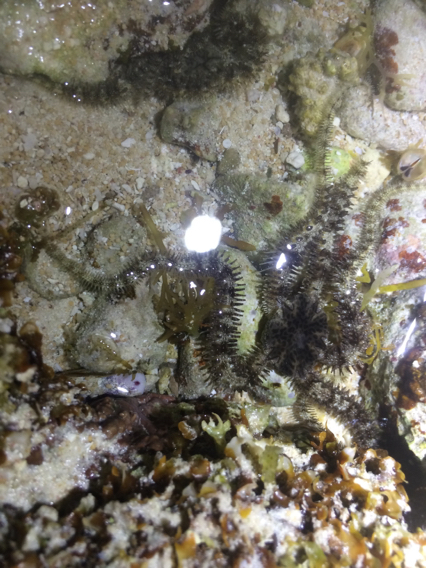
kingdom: Animalia
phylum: Echinodermata
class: Ophiuroidea
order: Ophiacanthida
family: Ophiocomidae
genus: Ophiocoma
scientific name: Ophiocoma scolopendrina
